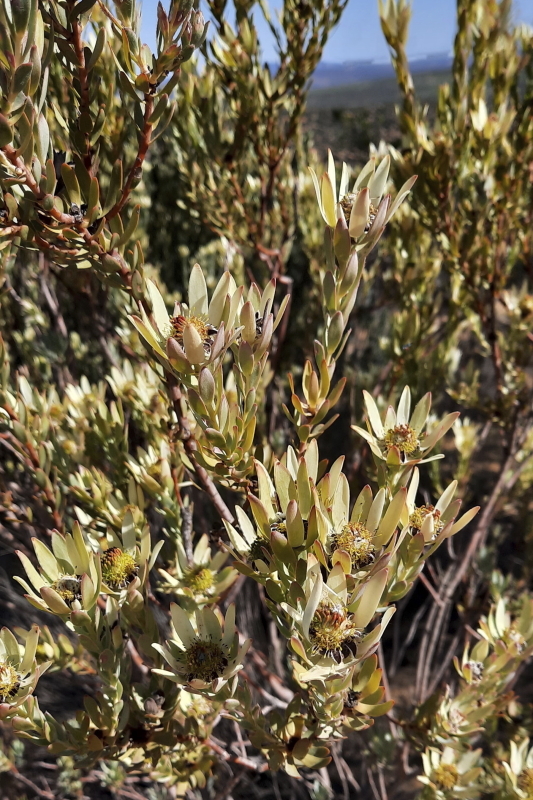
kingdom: Plantae
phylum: Tracheophyta
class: Magnoliopsida
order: Proteales
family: Proteaceae
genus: Leucadendron
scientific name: Leucadendron procerum
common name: Ivory conebush
